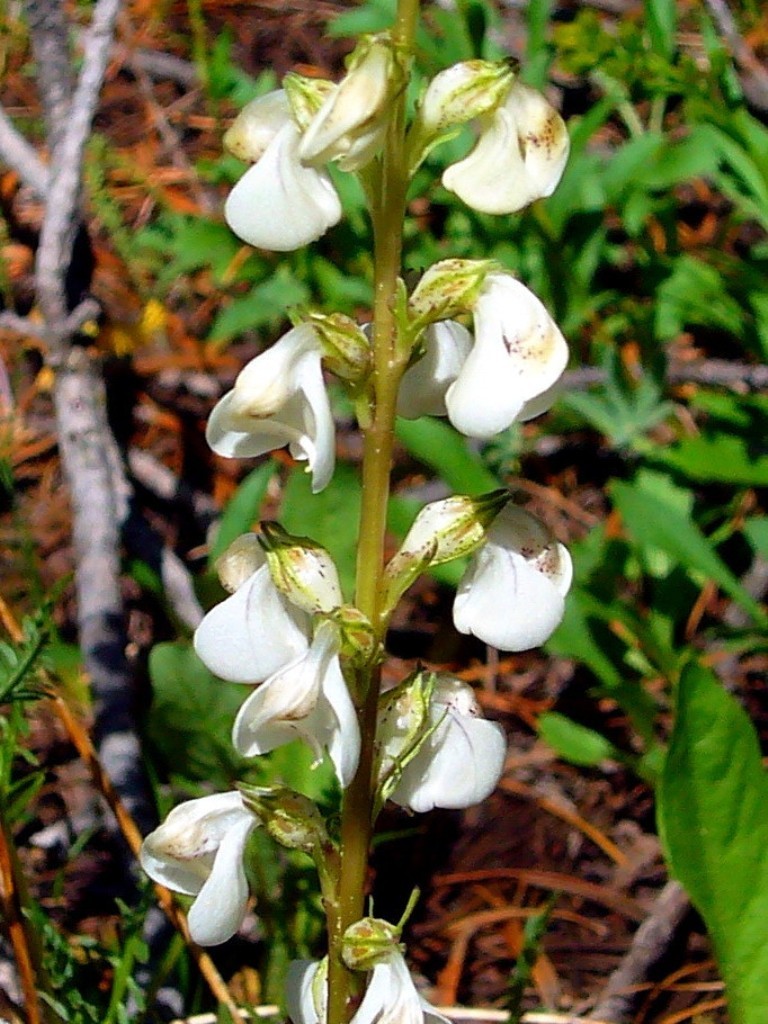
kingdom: Plantae
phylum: Tracheophyta
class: Magnoliopsida
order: Lamiales
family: Orobanchaceae
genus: Pedicularis
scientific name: Pedicularis contorta
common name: Coiled lousewort
